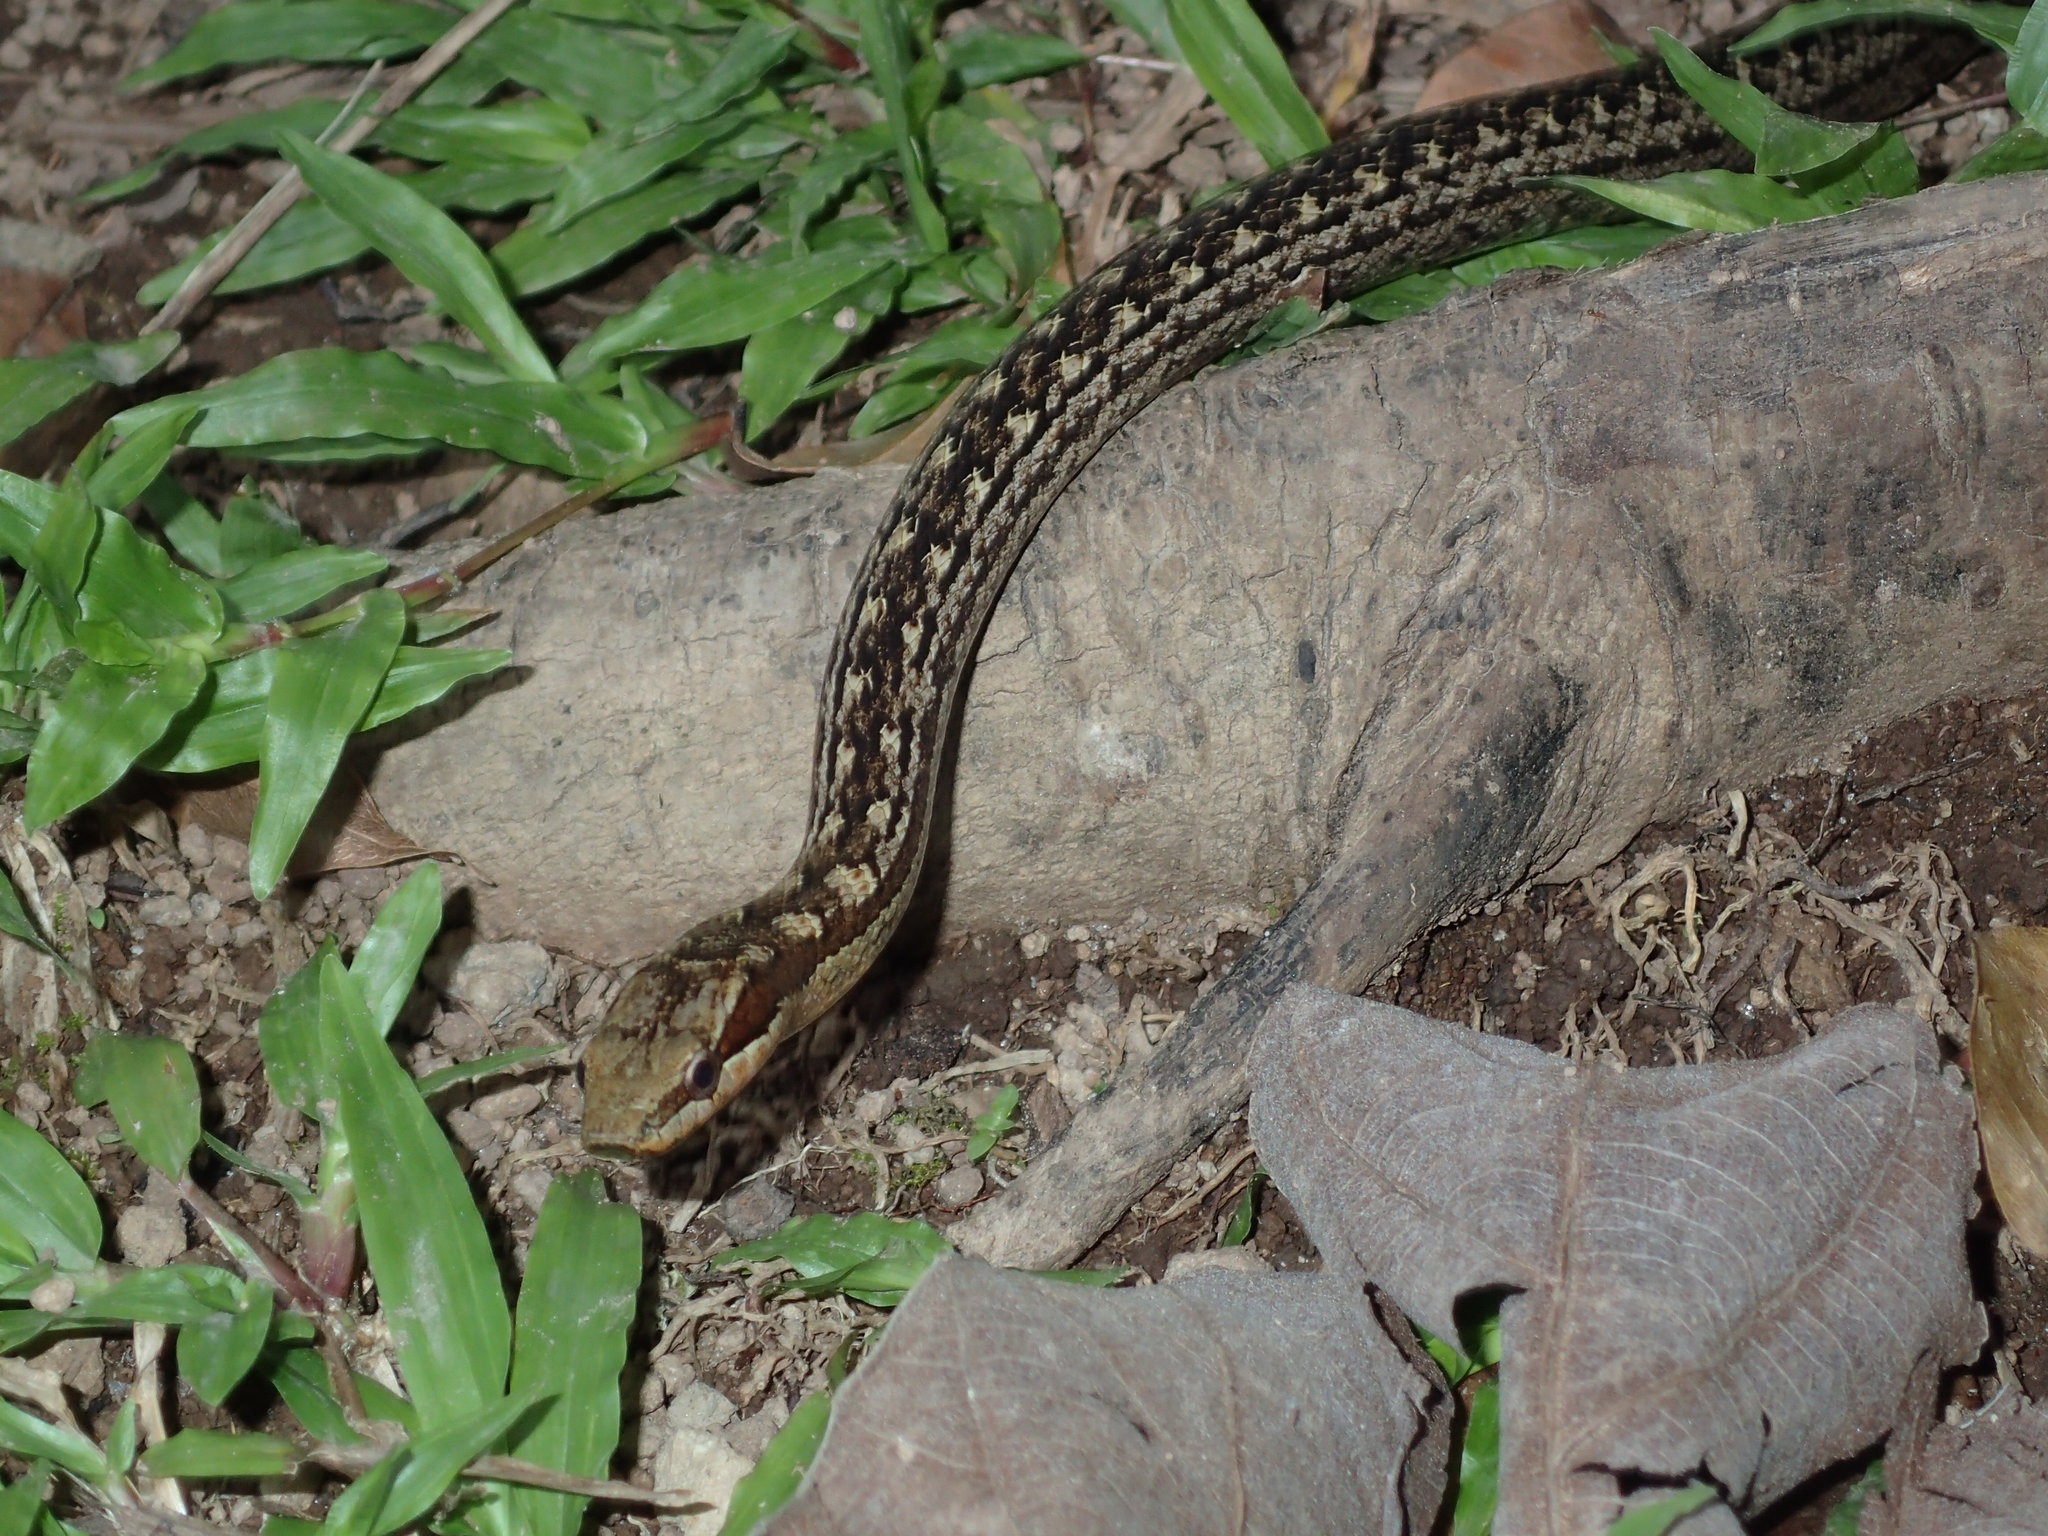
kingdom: Animalia
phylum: Chordata
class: Squamata
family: Colubridae
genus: Alsophis
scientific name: Alsophis rufiventris
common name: Orange-bellied racer
